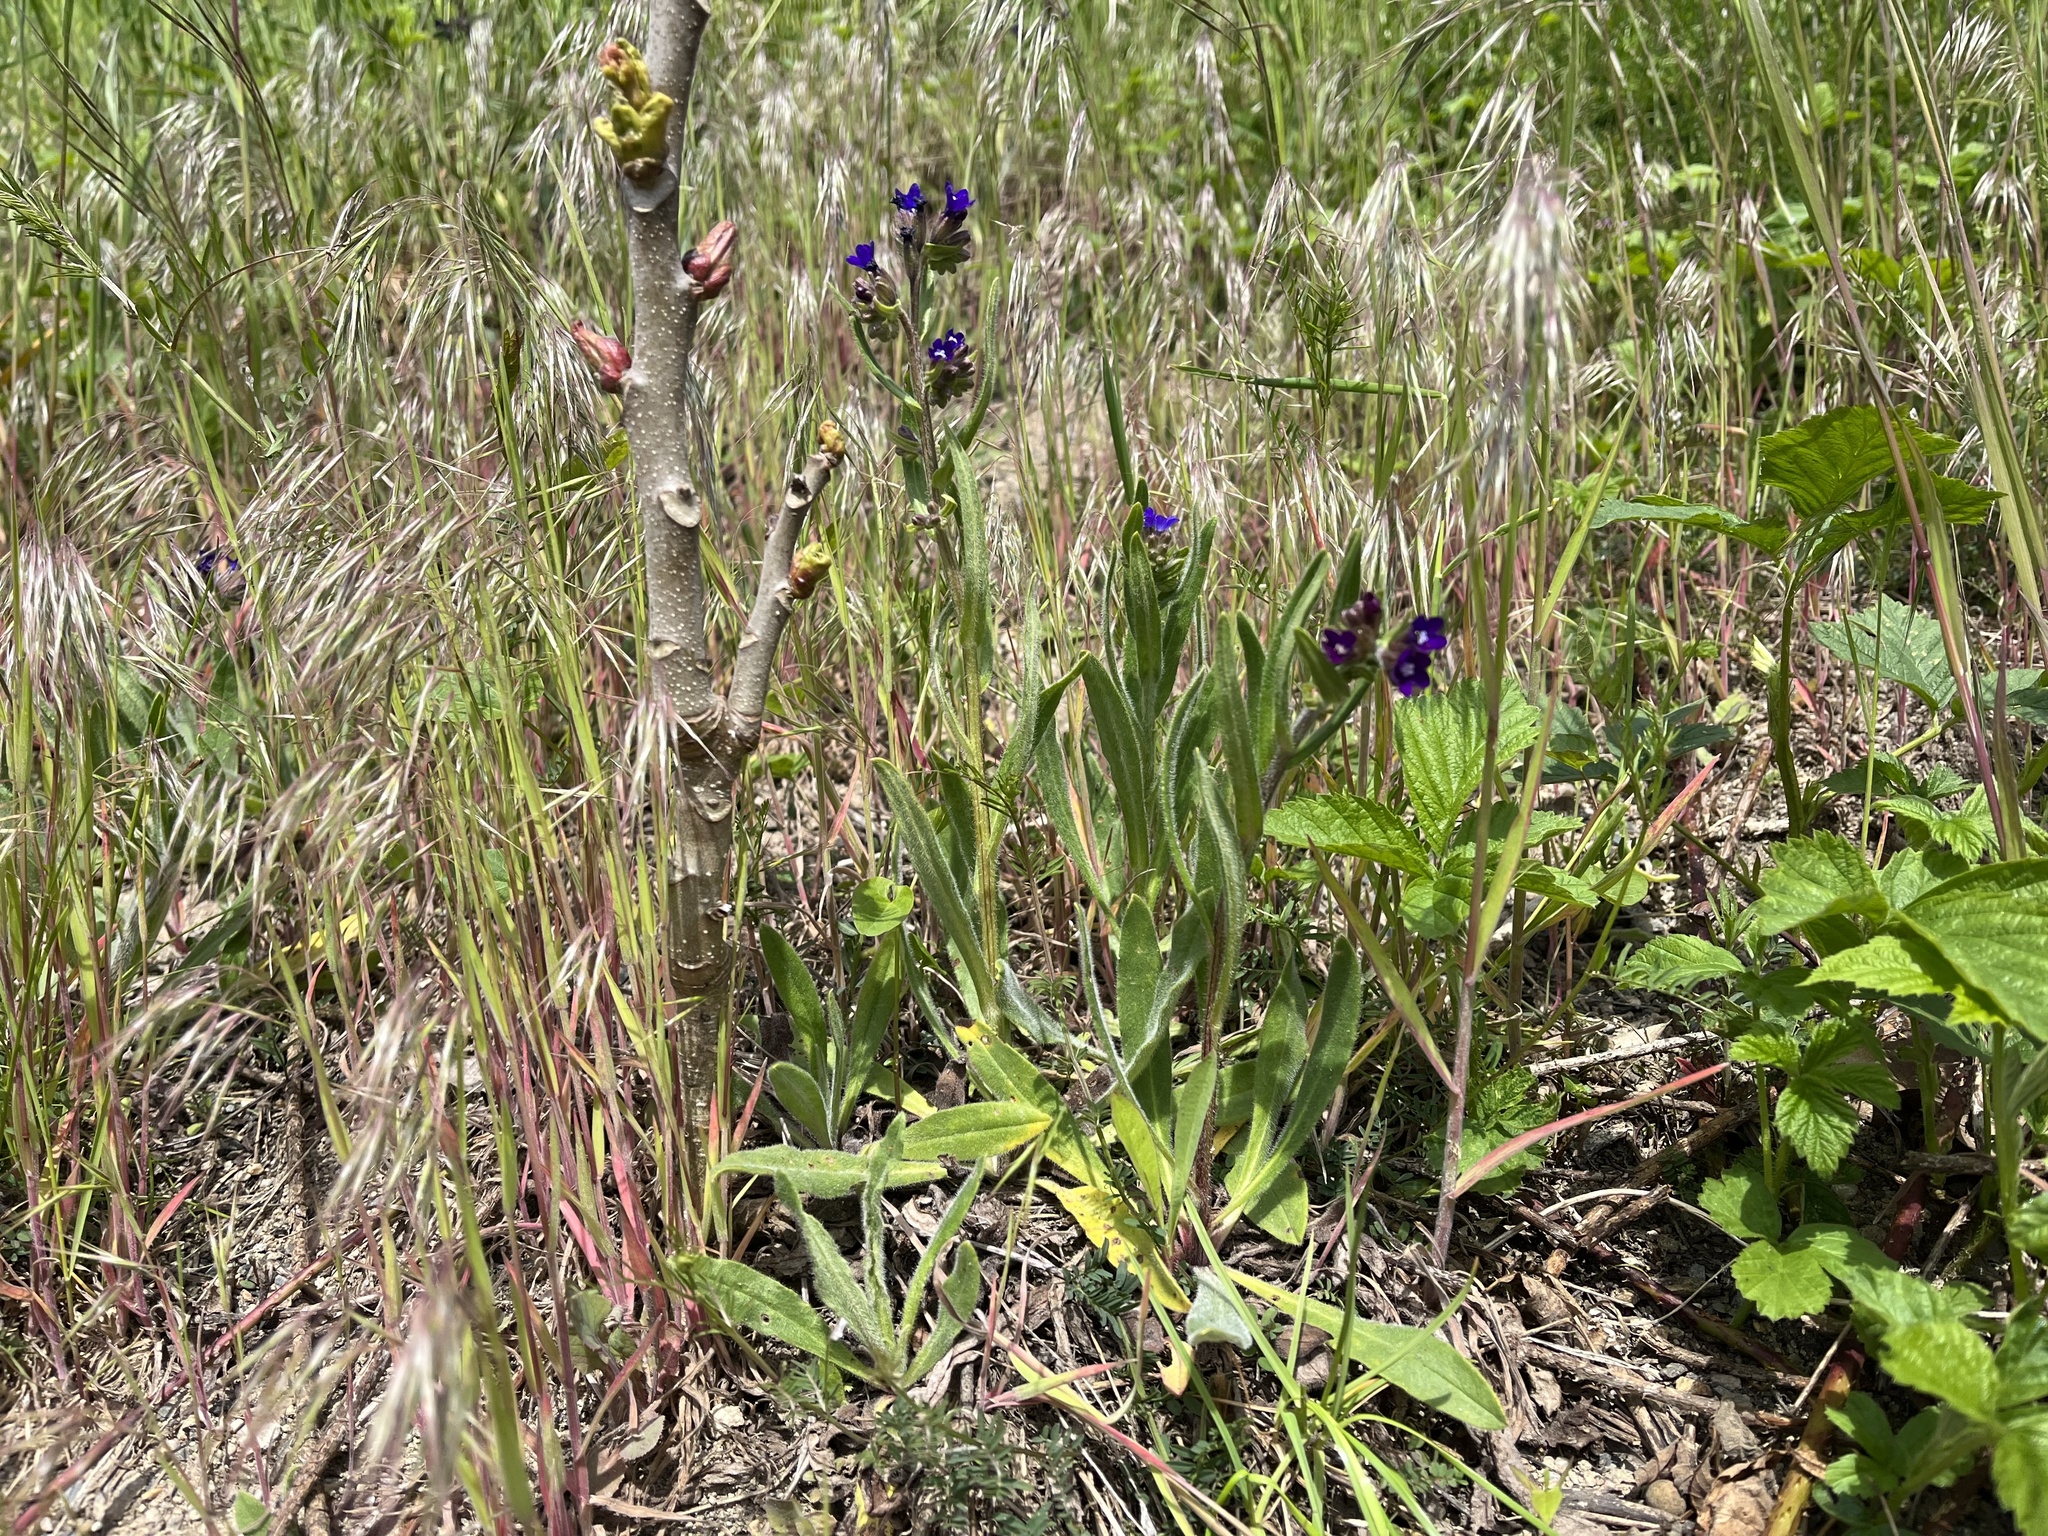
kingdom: Plantae
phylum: Tracheophyta
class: Magnoliopsida
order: Boraginales
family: Boraginaceae
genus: Anchusa
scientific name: Anchusa officinalis
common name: Alkanet
